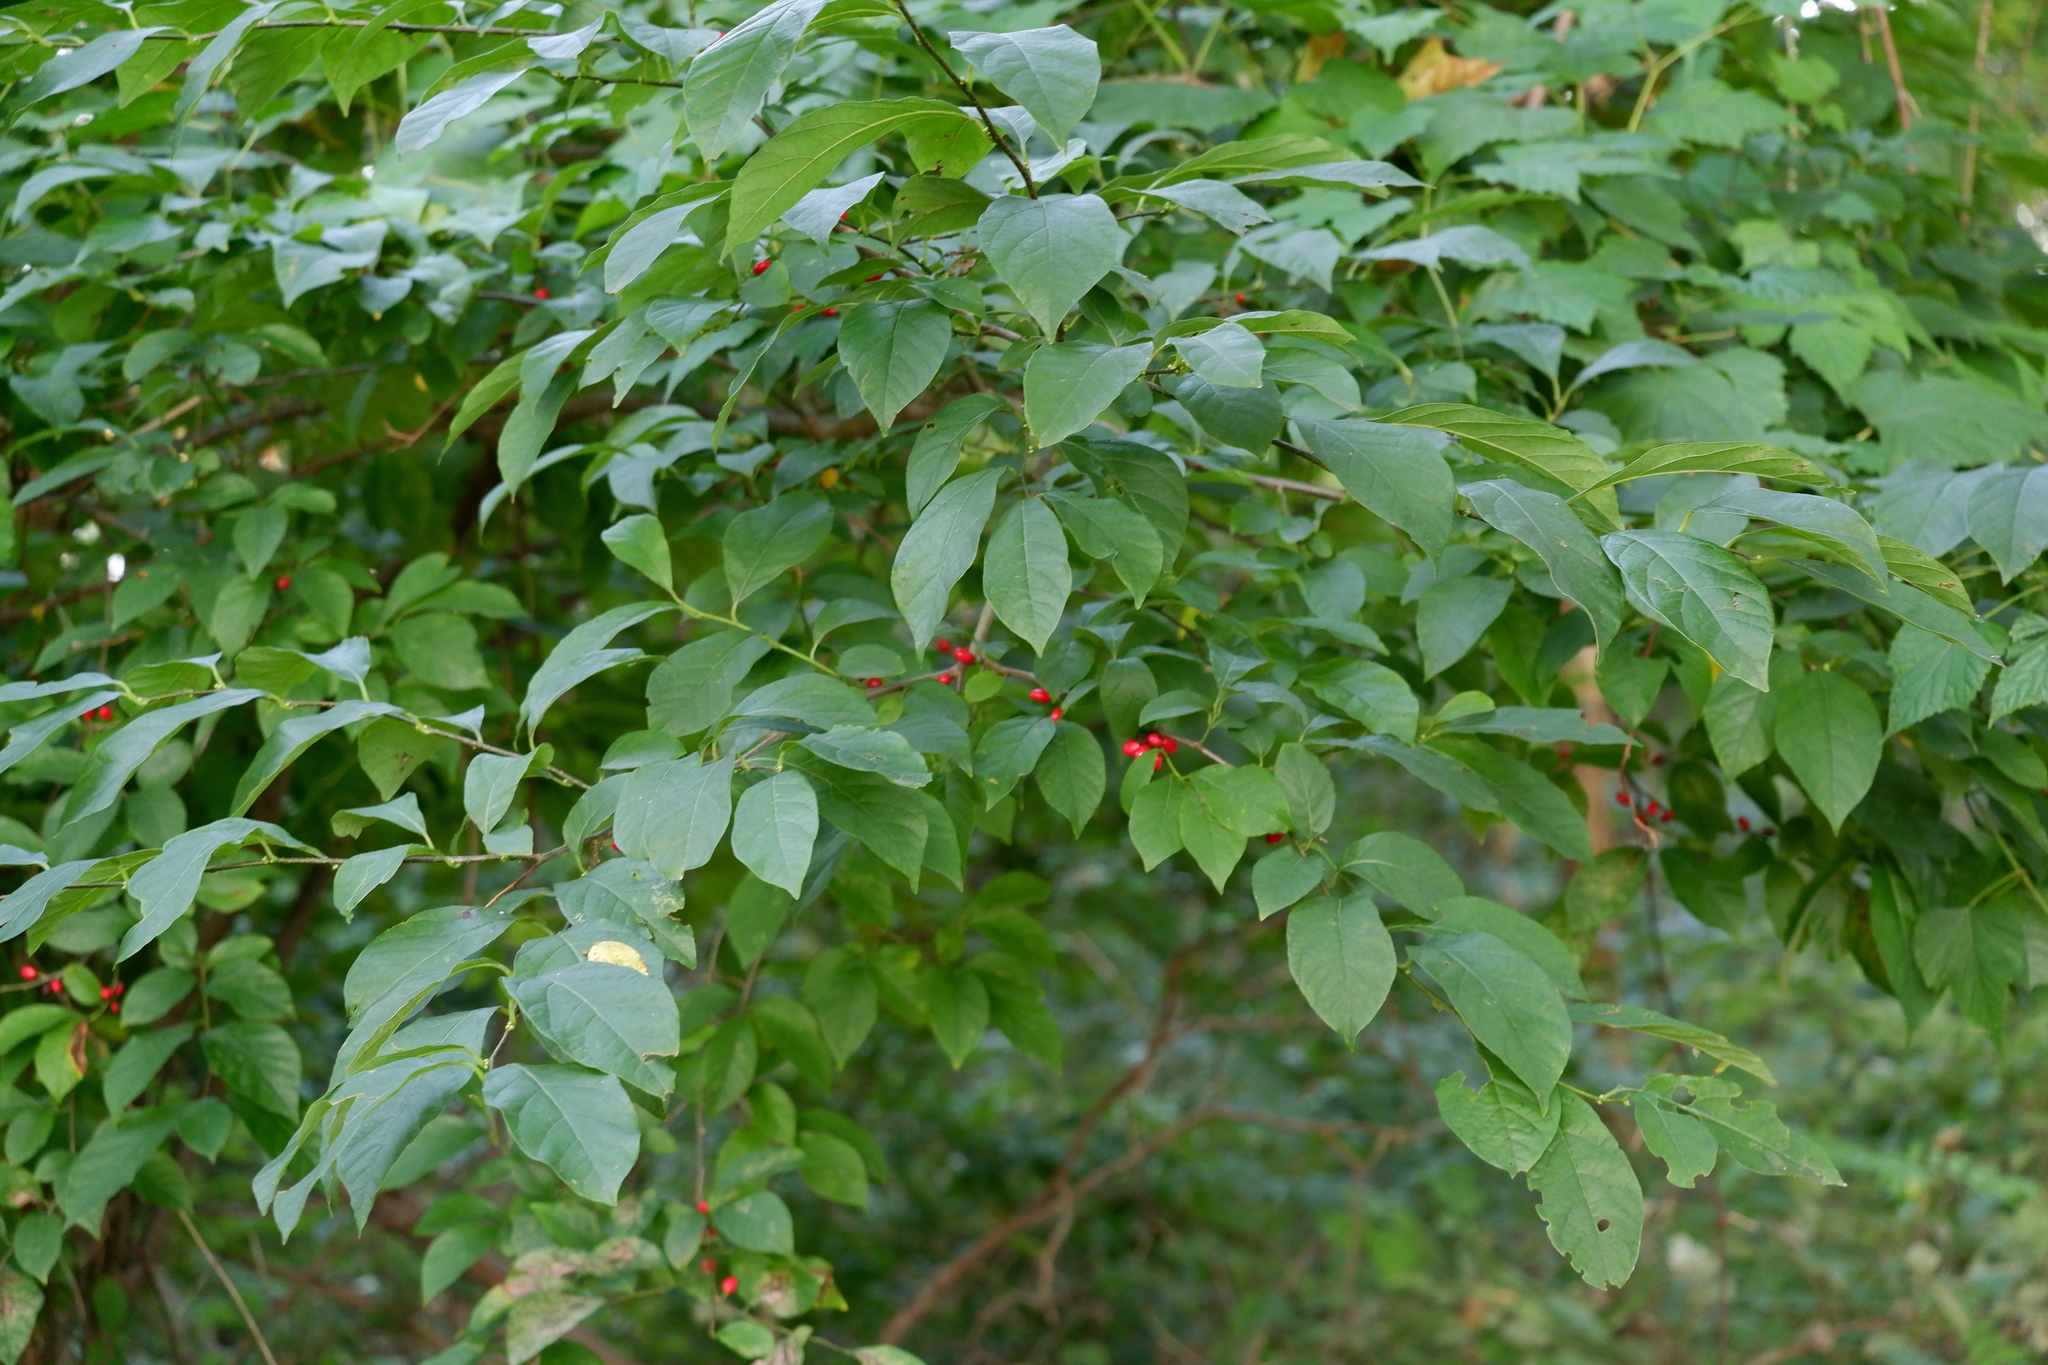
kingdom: Plantae
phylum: Tracheophyta
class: Magnoliopsida
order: Laurales
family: Lauraceae
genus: Lindera
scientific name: Lindera benzoin
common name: Spicebush
